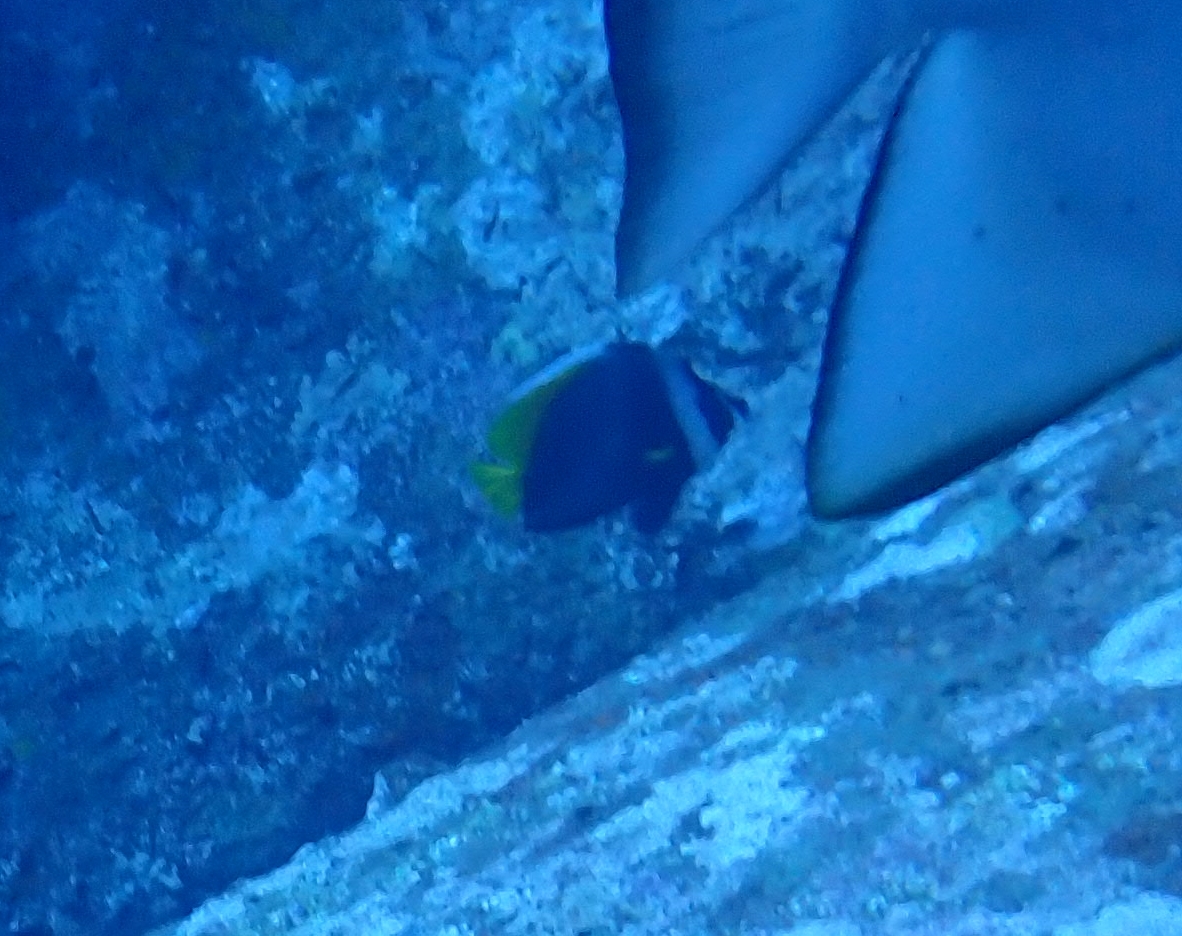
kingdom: Animalia
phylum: Chordata
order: Perciformes
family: Chaetodontidae
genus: Heniochus
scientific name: Heniochus singularius
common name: Singular bannerfish
